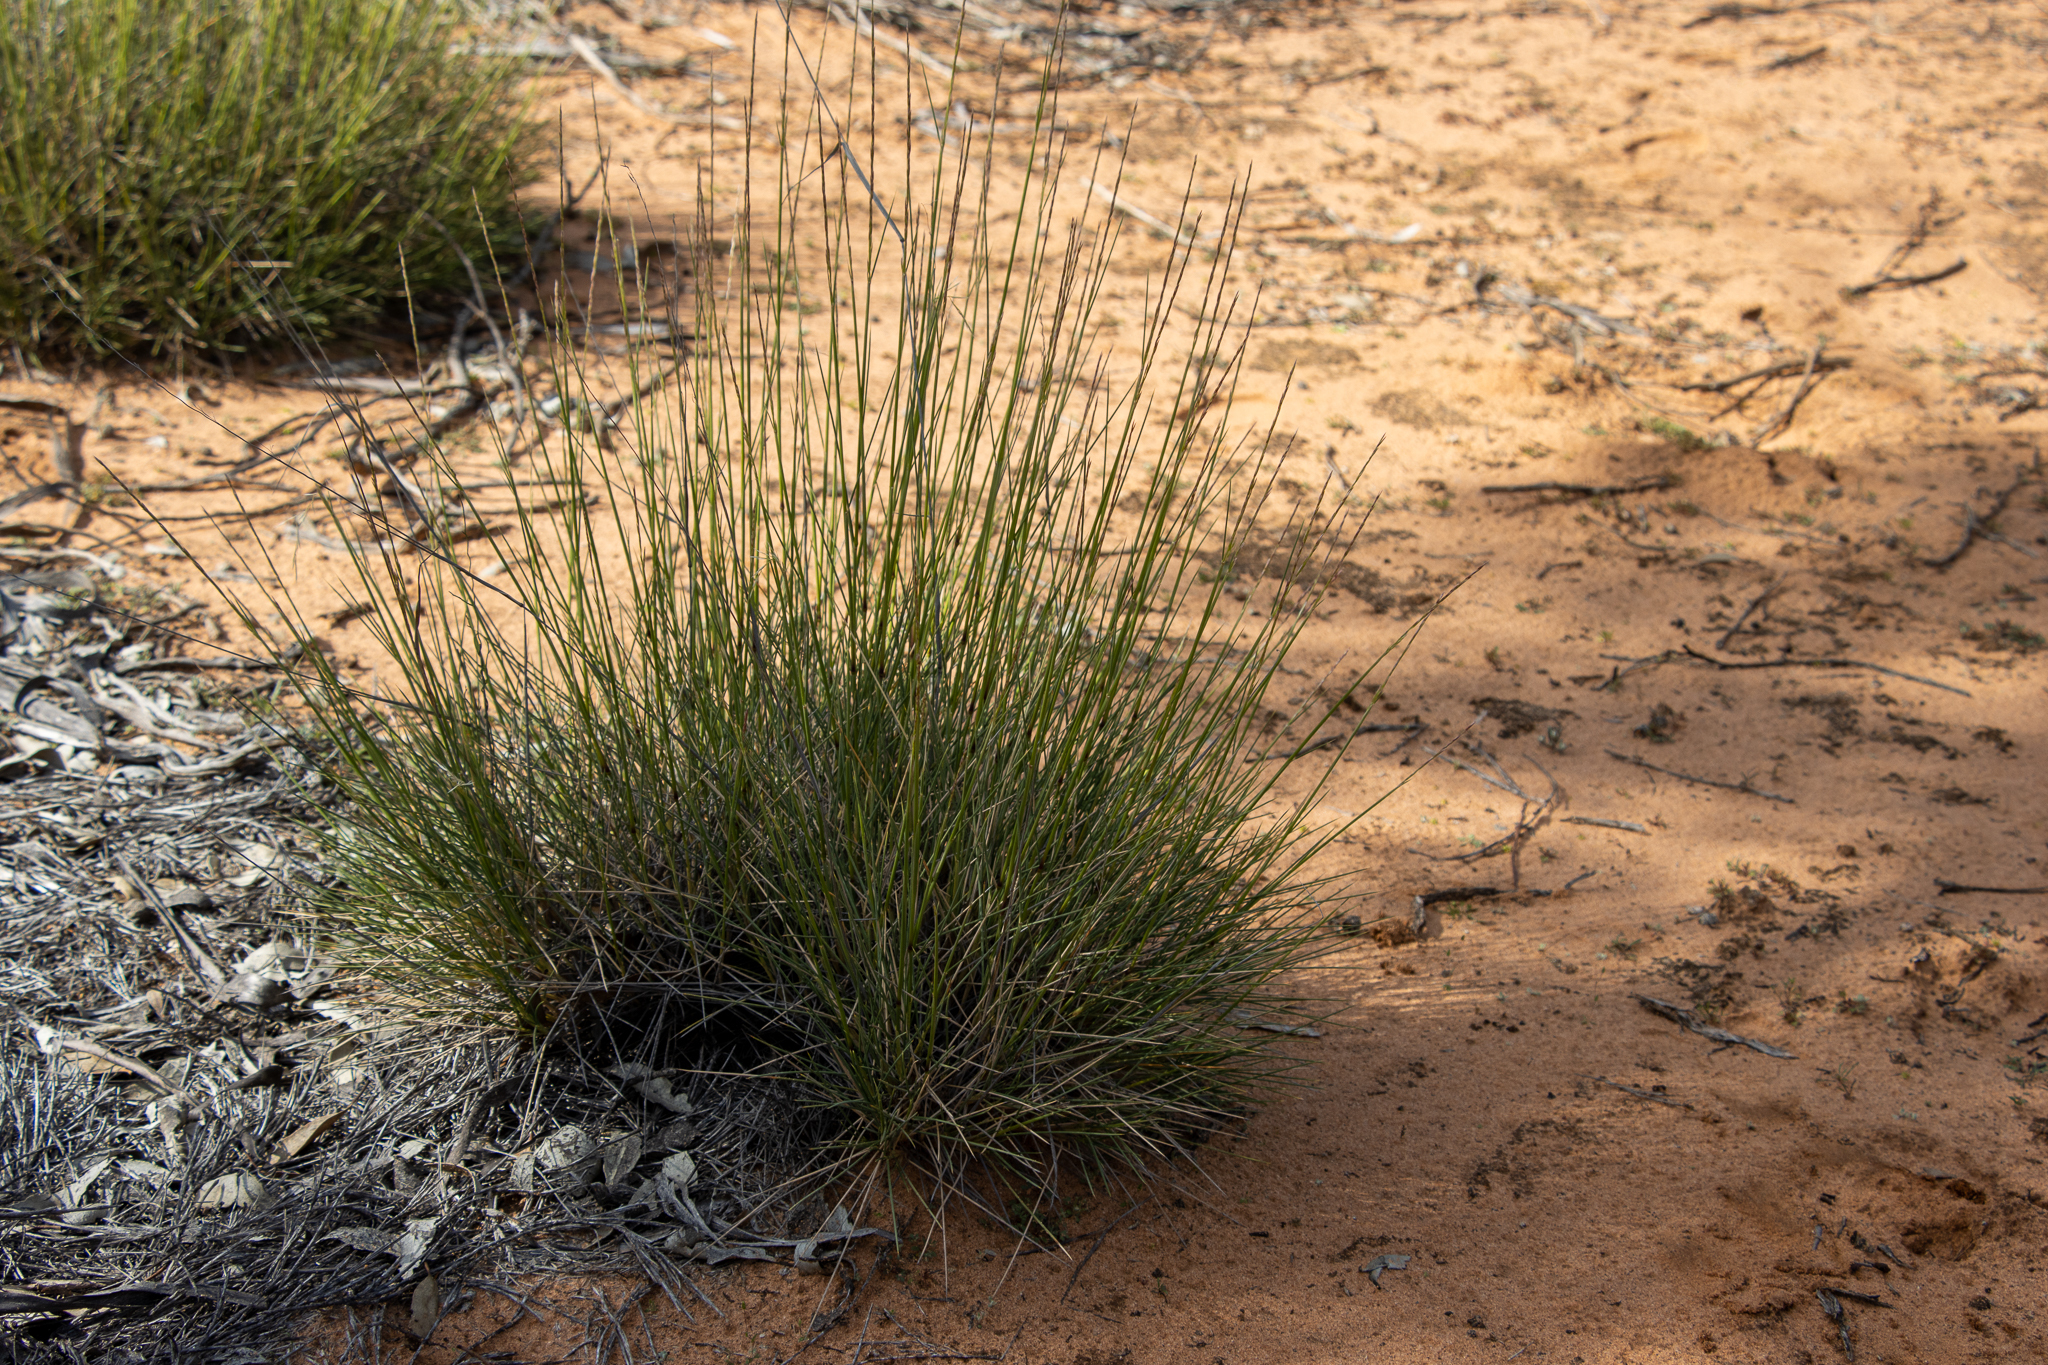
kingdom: Plantae
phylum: Tracheophyta
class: Liliopsida
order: Poales
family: Poaceae
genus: Triodia
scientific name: Triodia scariosa
